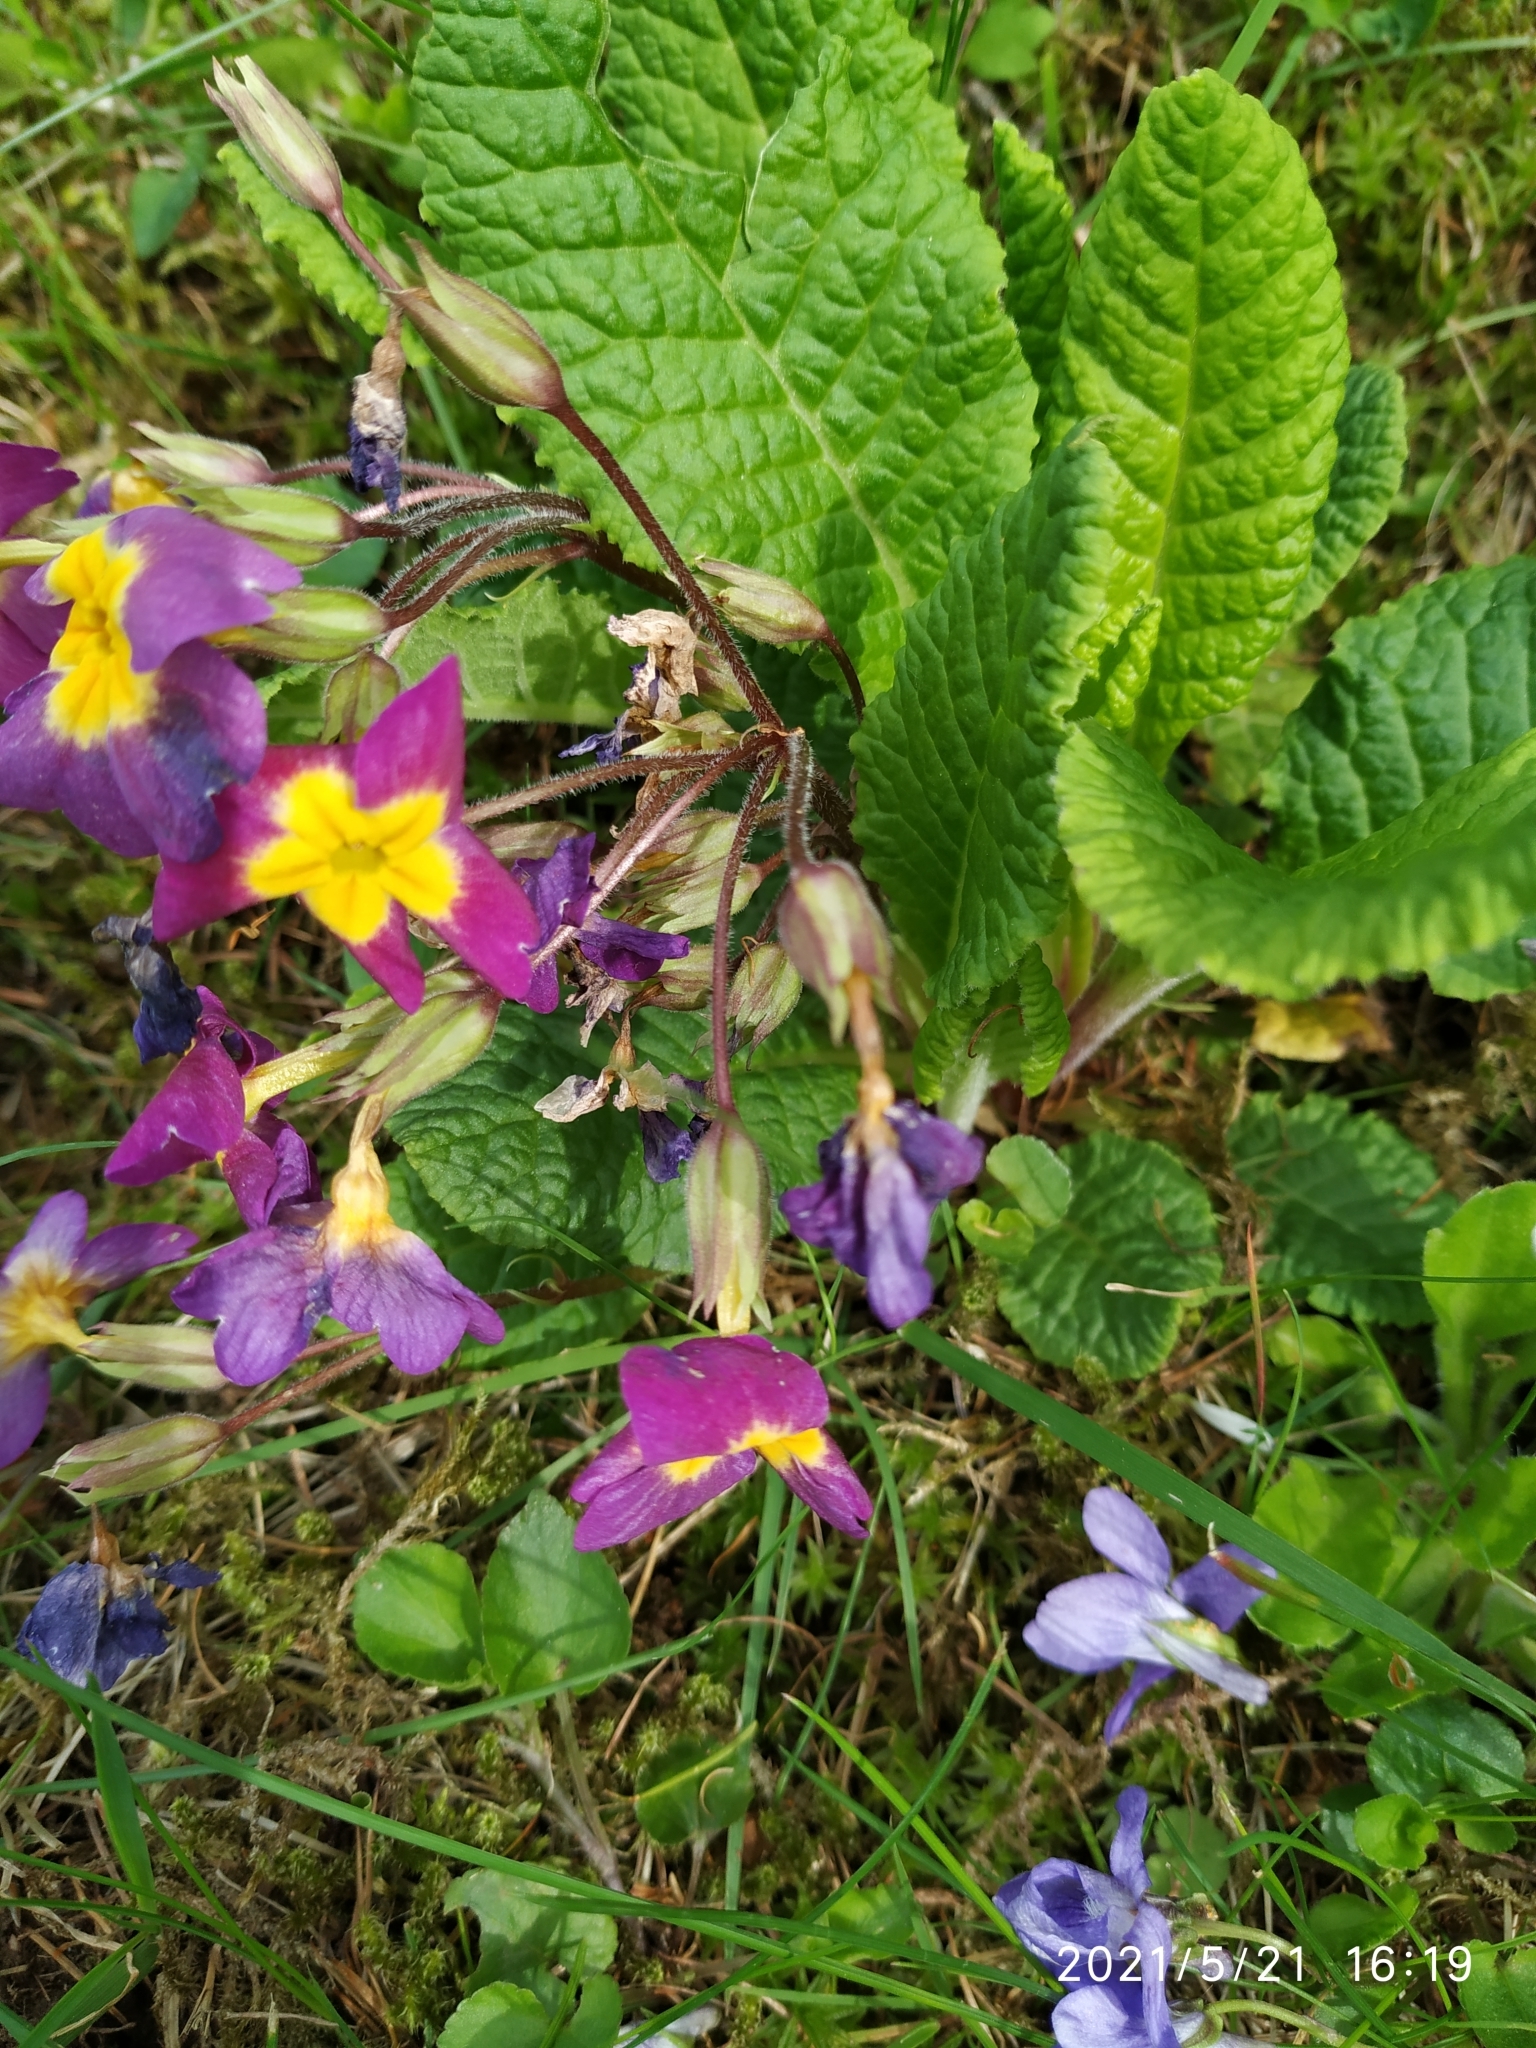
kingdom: Plantae
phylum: Tracheophyta
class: Magnoliopsida
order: Ericales
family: Primulaceae
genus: Primula
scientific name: Primula vulgaris
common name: Primrose
